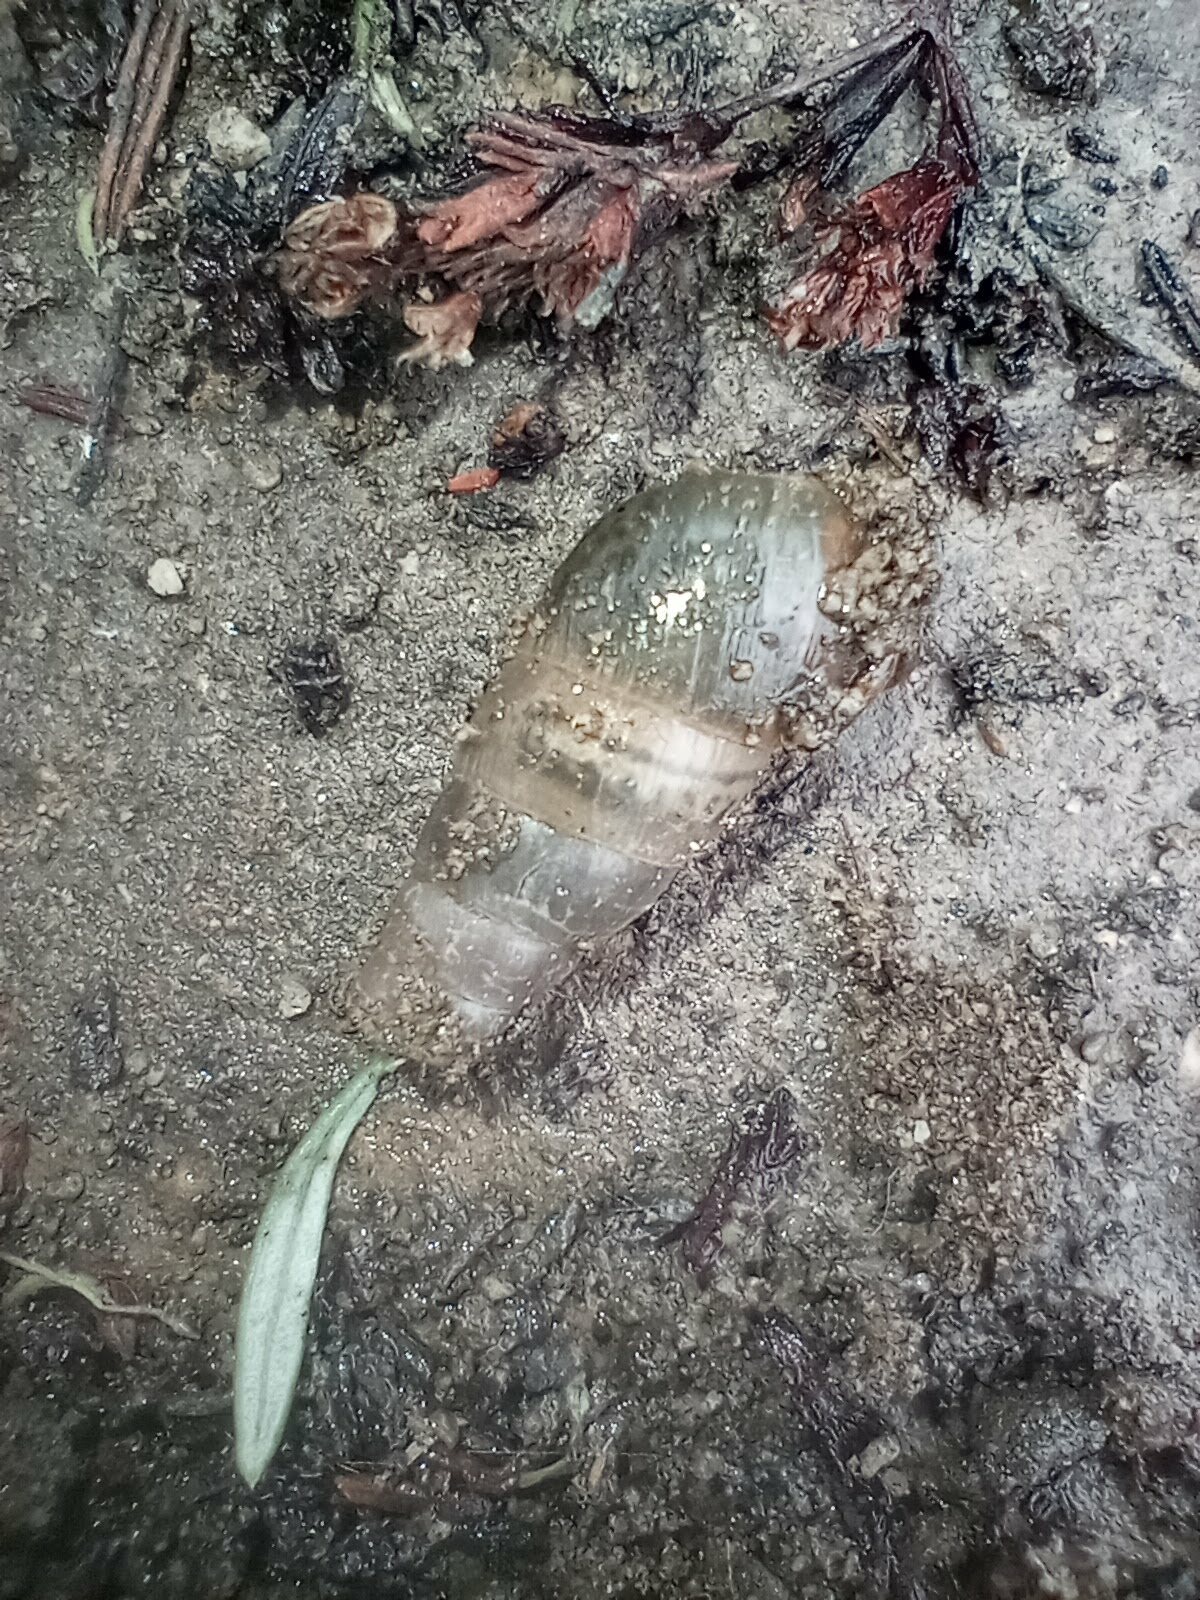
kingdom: Animalia
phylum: Mollusca
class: Gastropoda
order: Stylommatophora
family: Achatinidae
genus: Rumina
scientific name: Rumina decollata
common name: Decollate snail
